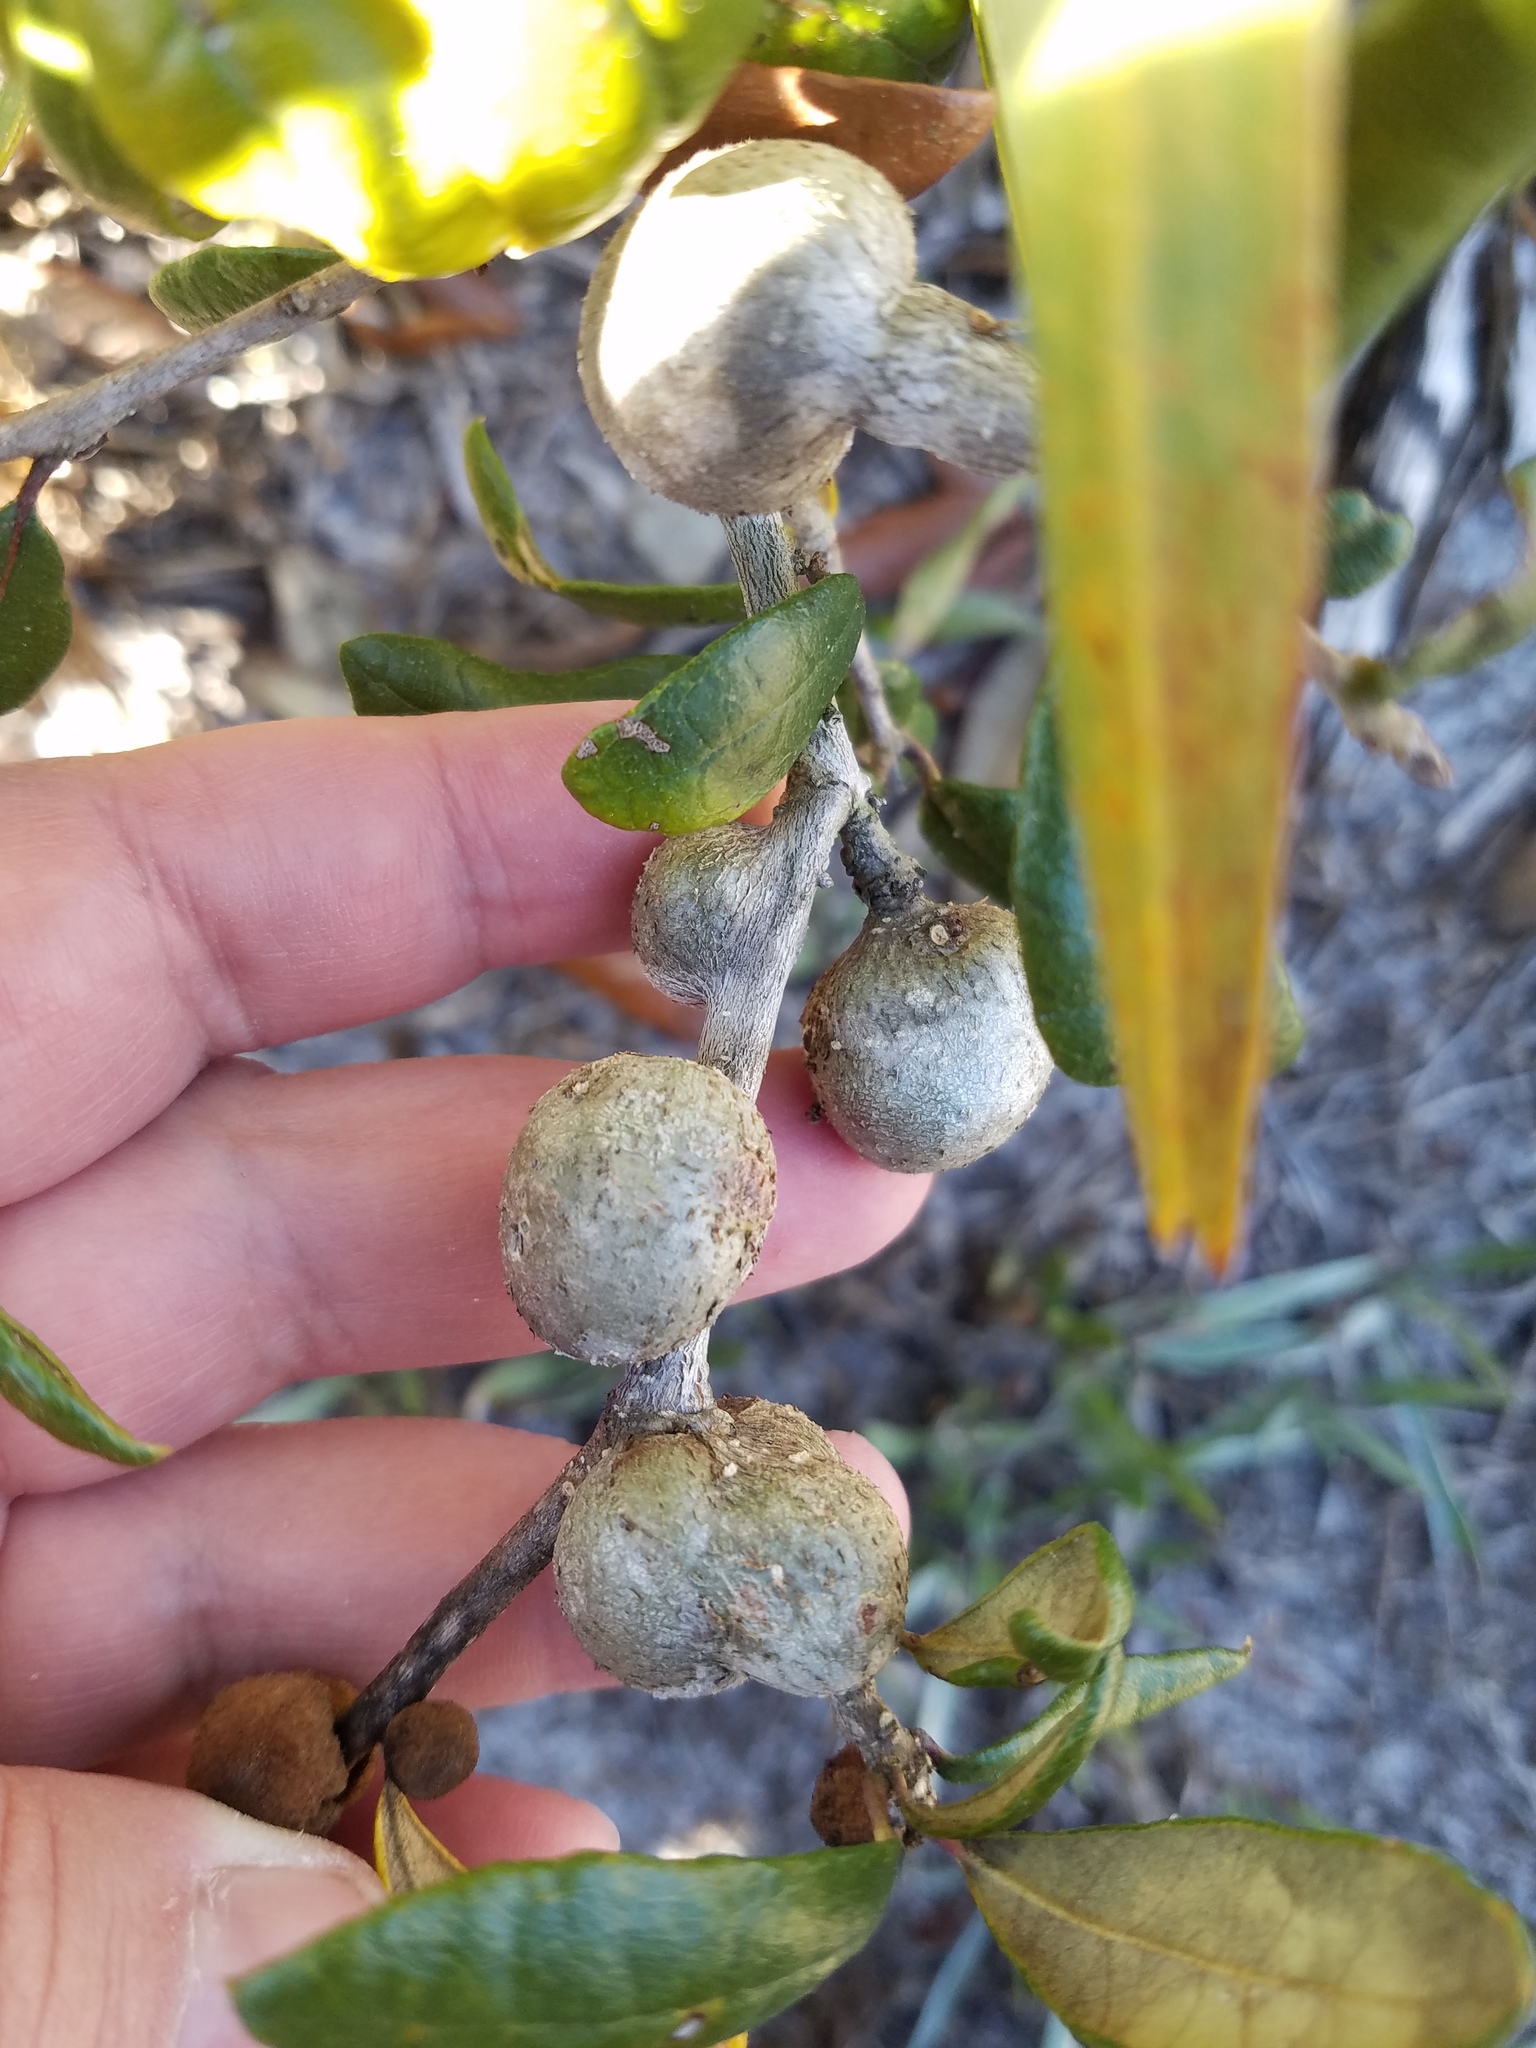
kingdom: Animalia
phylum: Arthropoda
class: Insecta
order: Hymenoptera
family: Cynipidae
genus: Callirhytis
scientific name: Callirhytis
